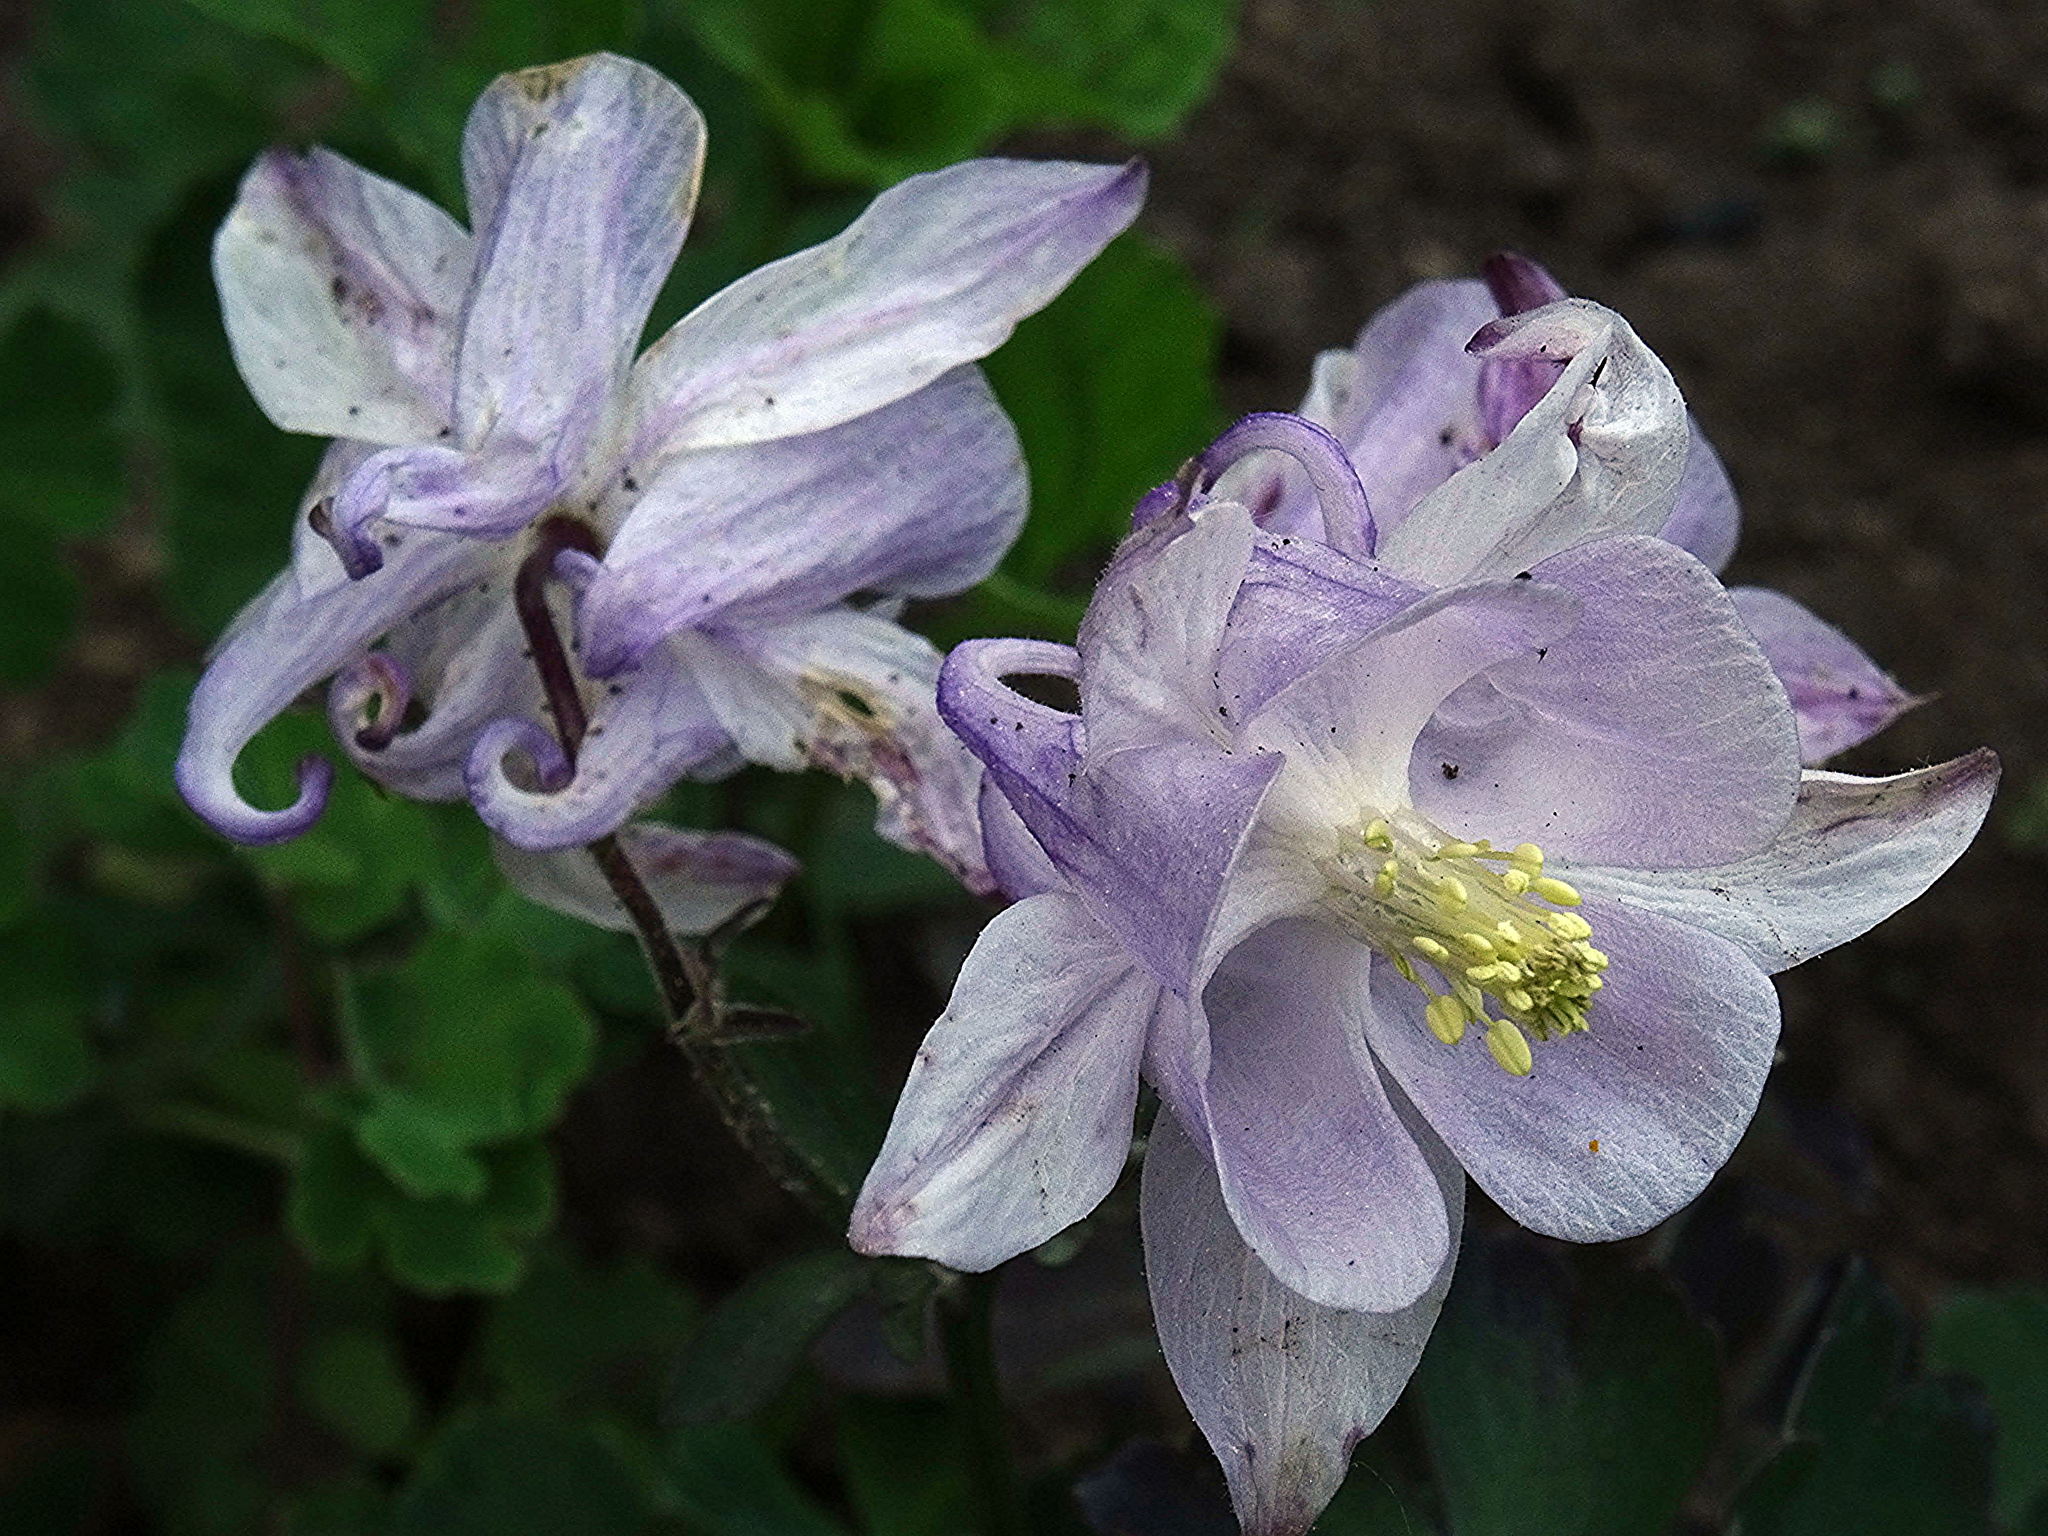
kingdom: Plantae
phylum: Tracheophyta
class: Magnoliopsida
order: Ranunculales
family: Ranunculaceae
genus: Aquilegia
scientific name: Aquilegia vulgaris
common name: Columbine
